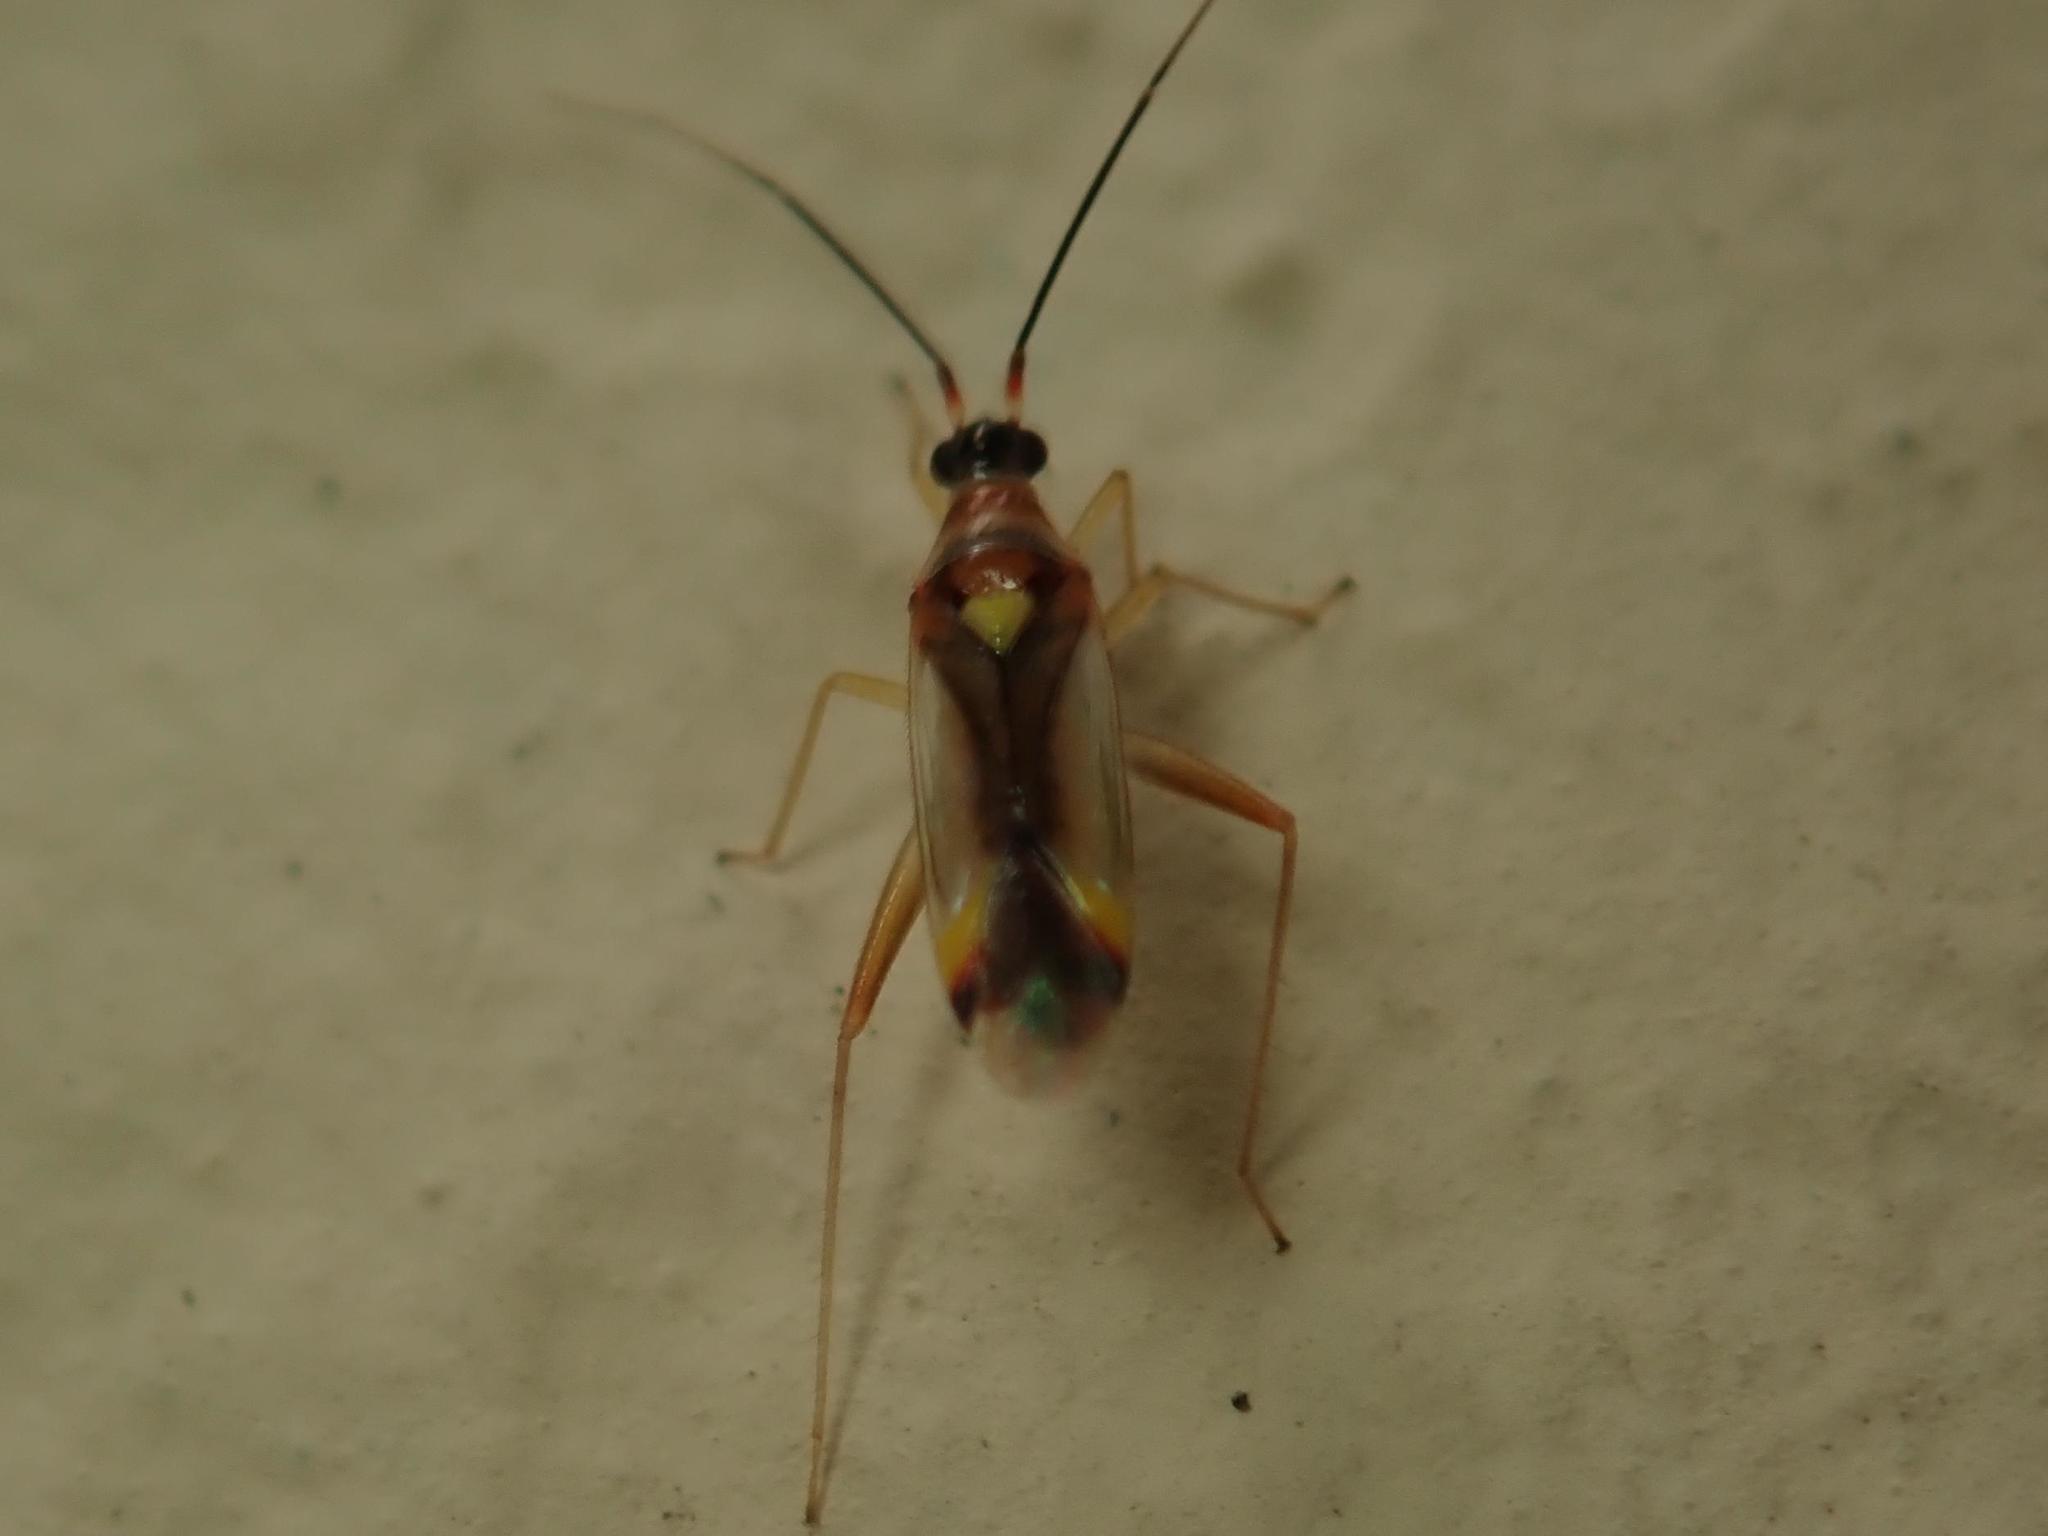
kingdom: Animalia
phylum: Arthropoda
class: Insecta
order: Hemiptera
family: Miridae
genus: Campyloneura
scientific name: Campyloneura virgula
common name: Predatory bug
